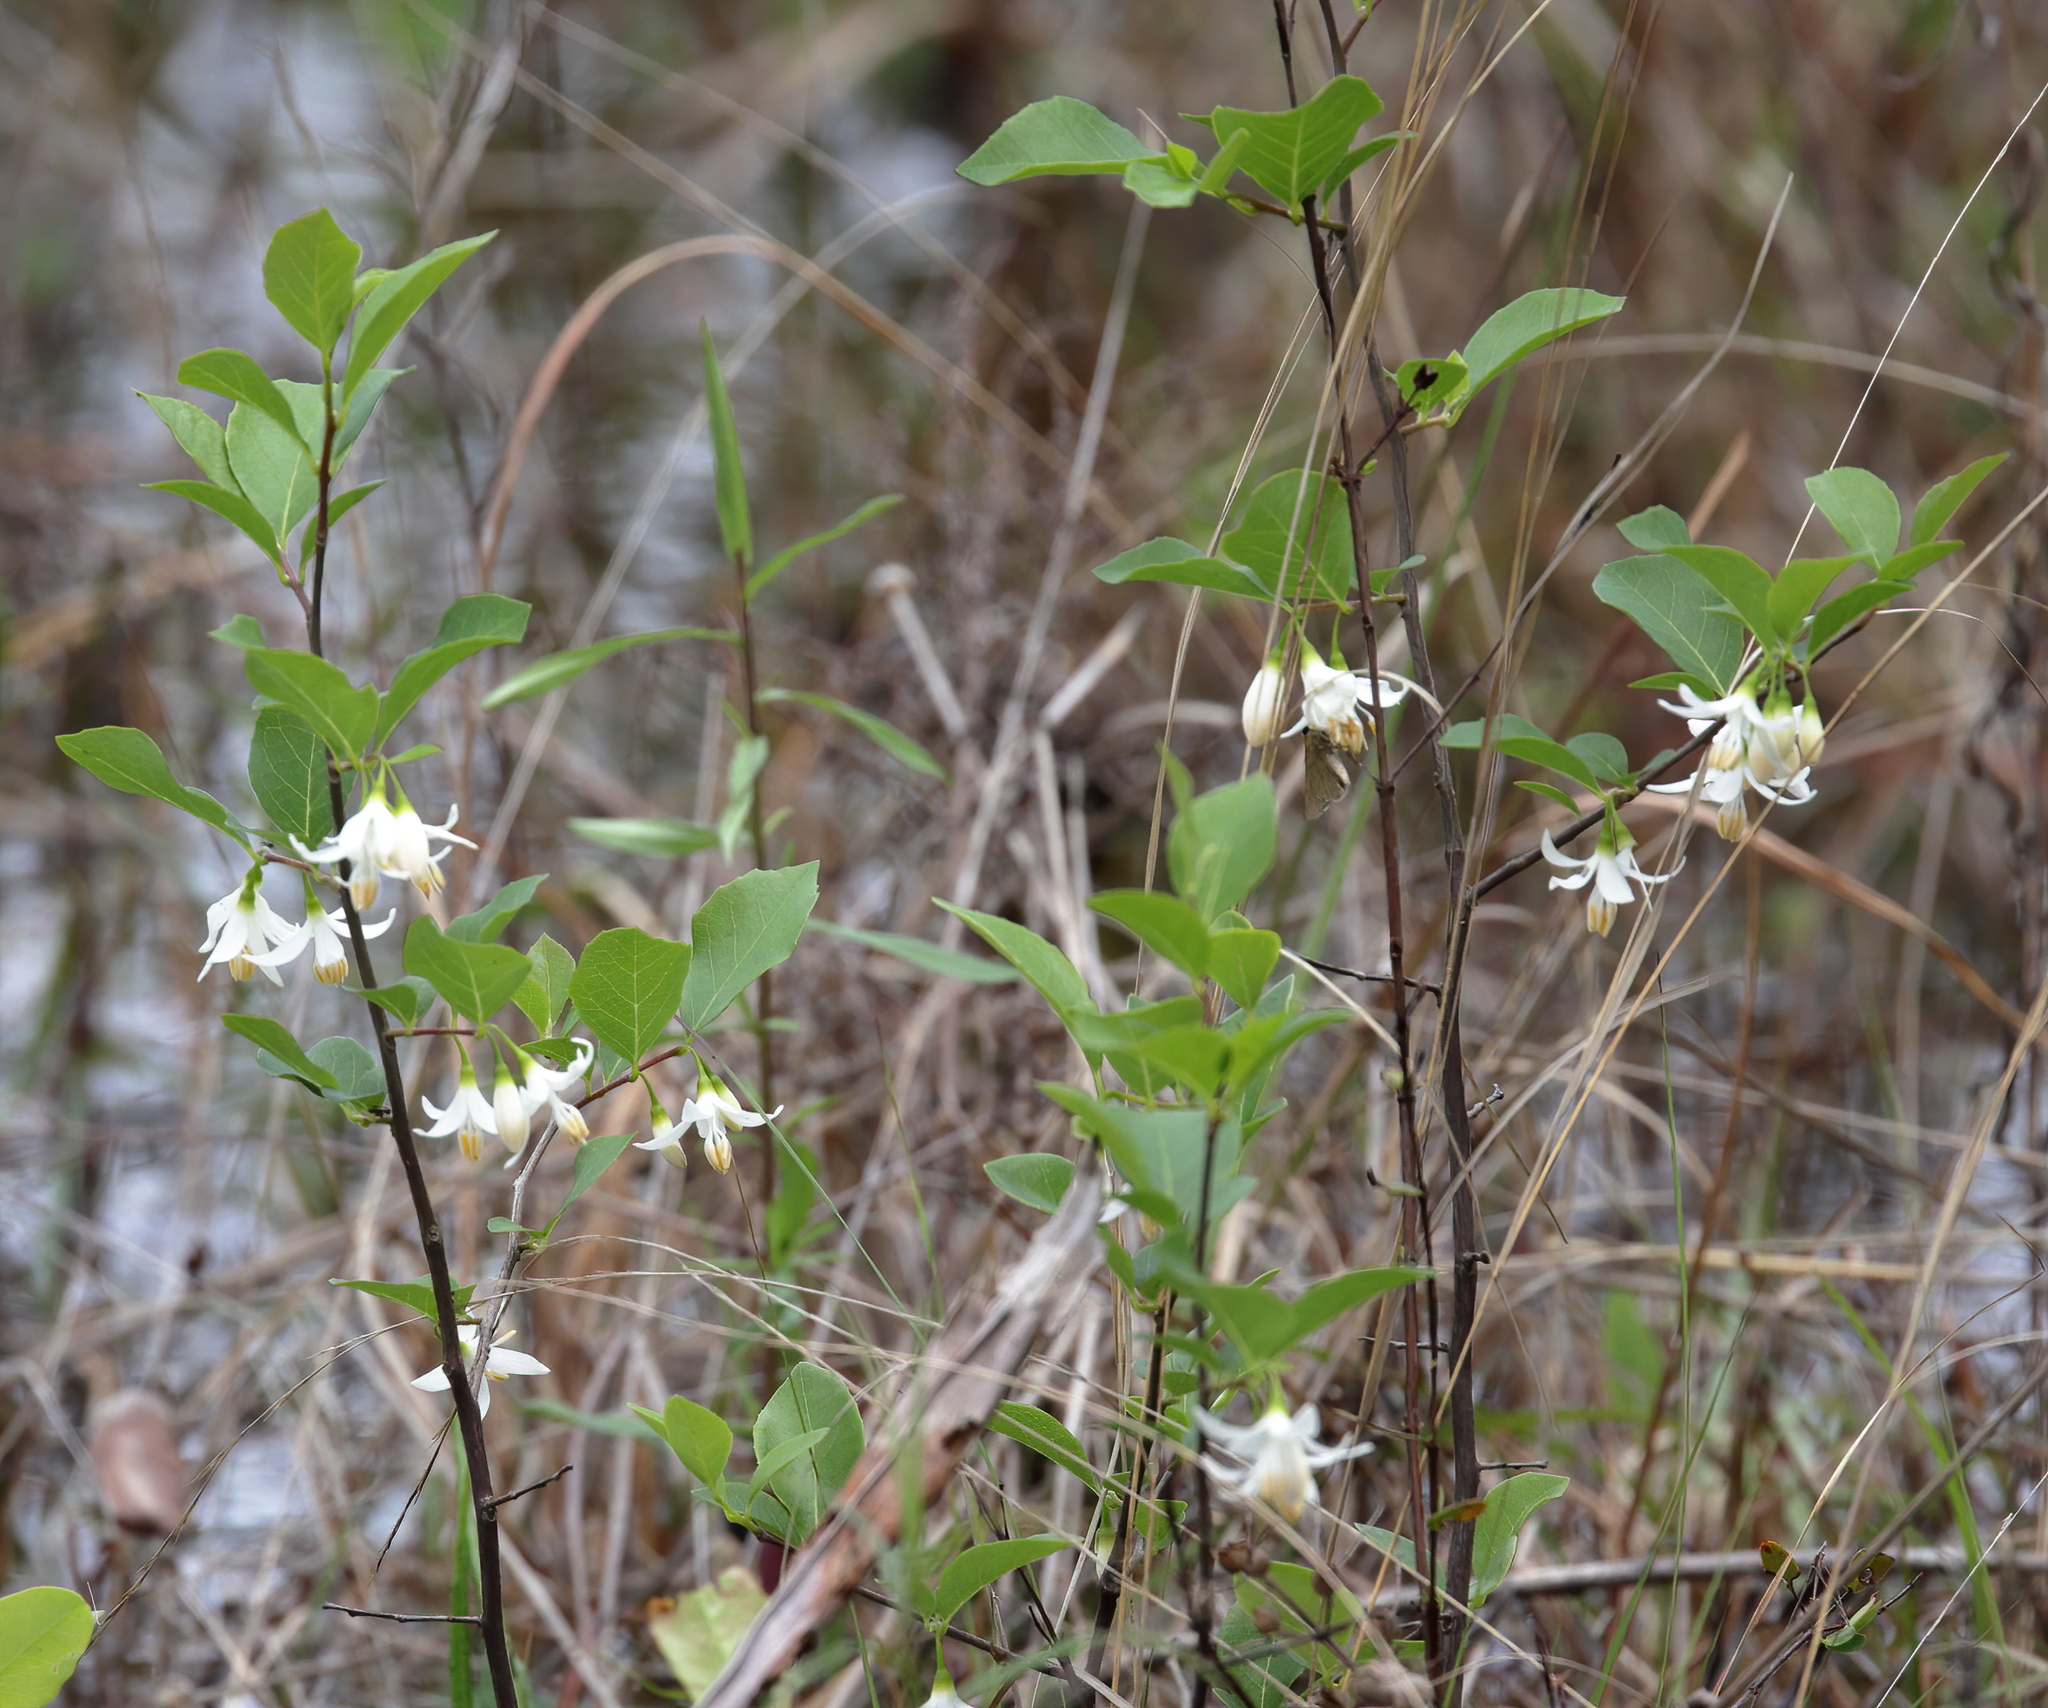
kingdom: Plantae
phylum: Tracheophyta
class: Magnoliopsida
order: Ericales
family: Styracaceae
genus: Styrax
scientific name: Styrax americanus
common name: American snowbell
